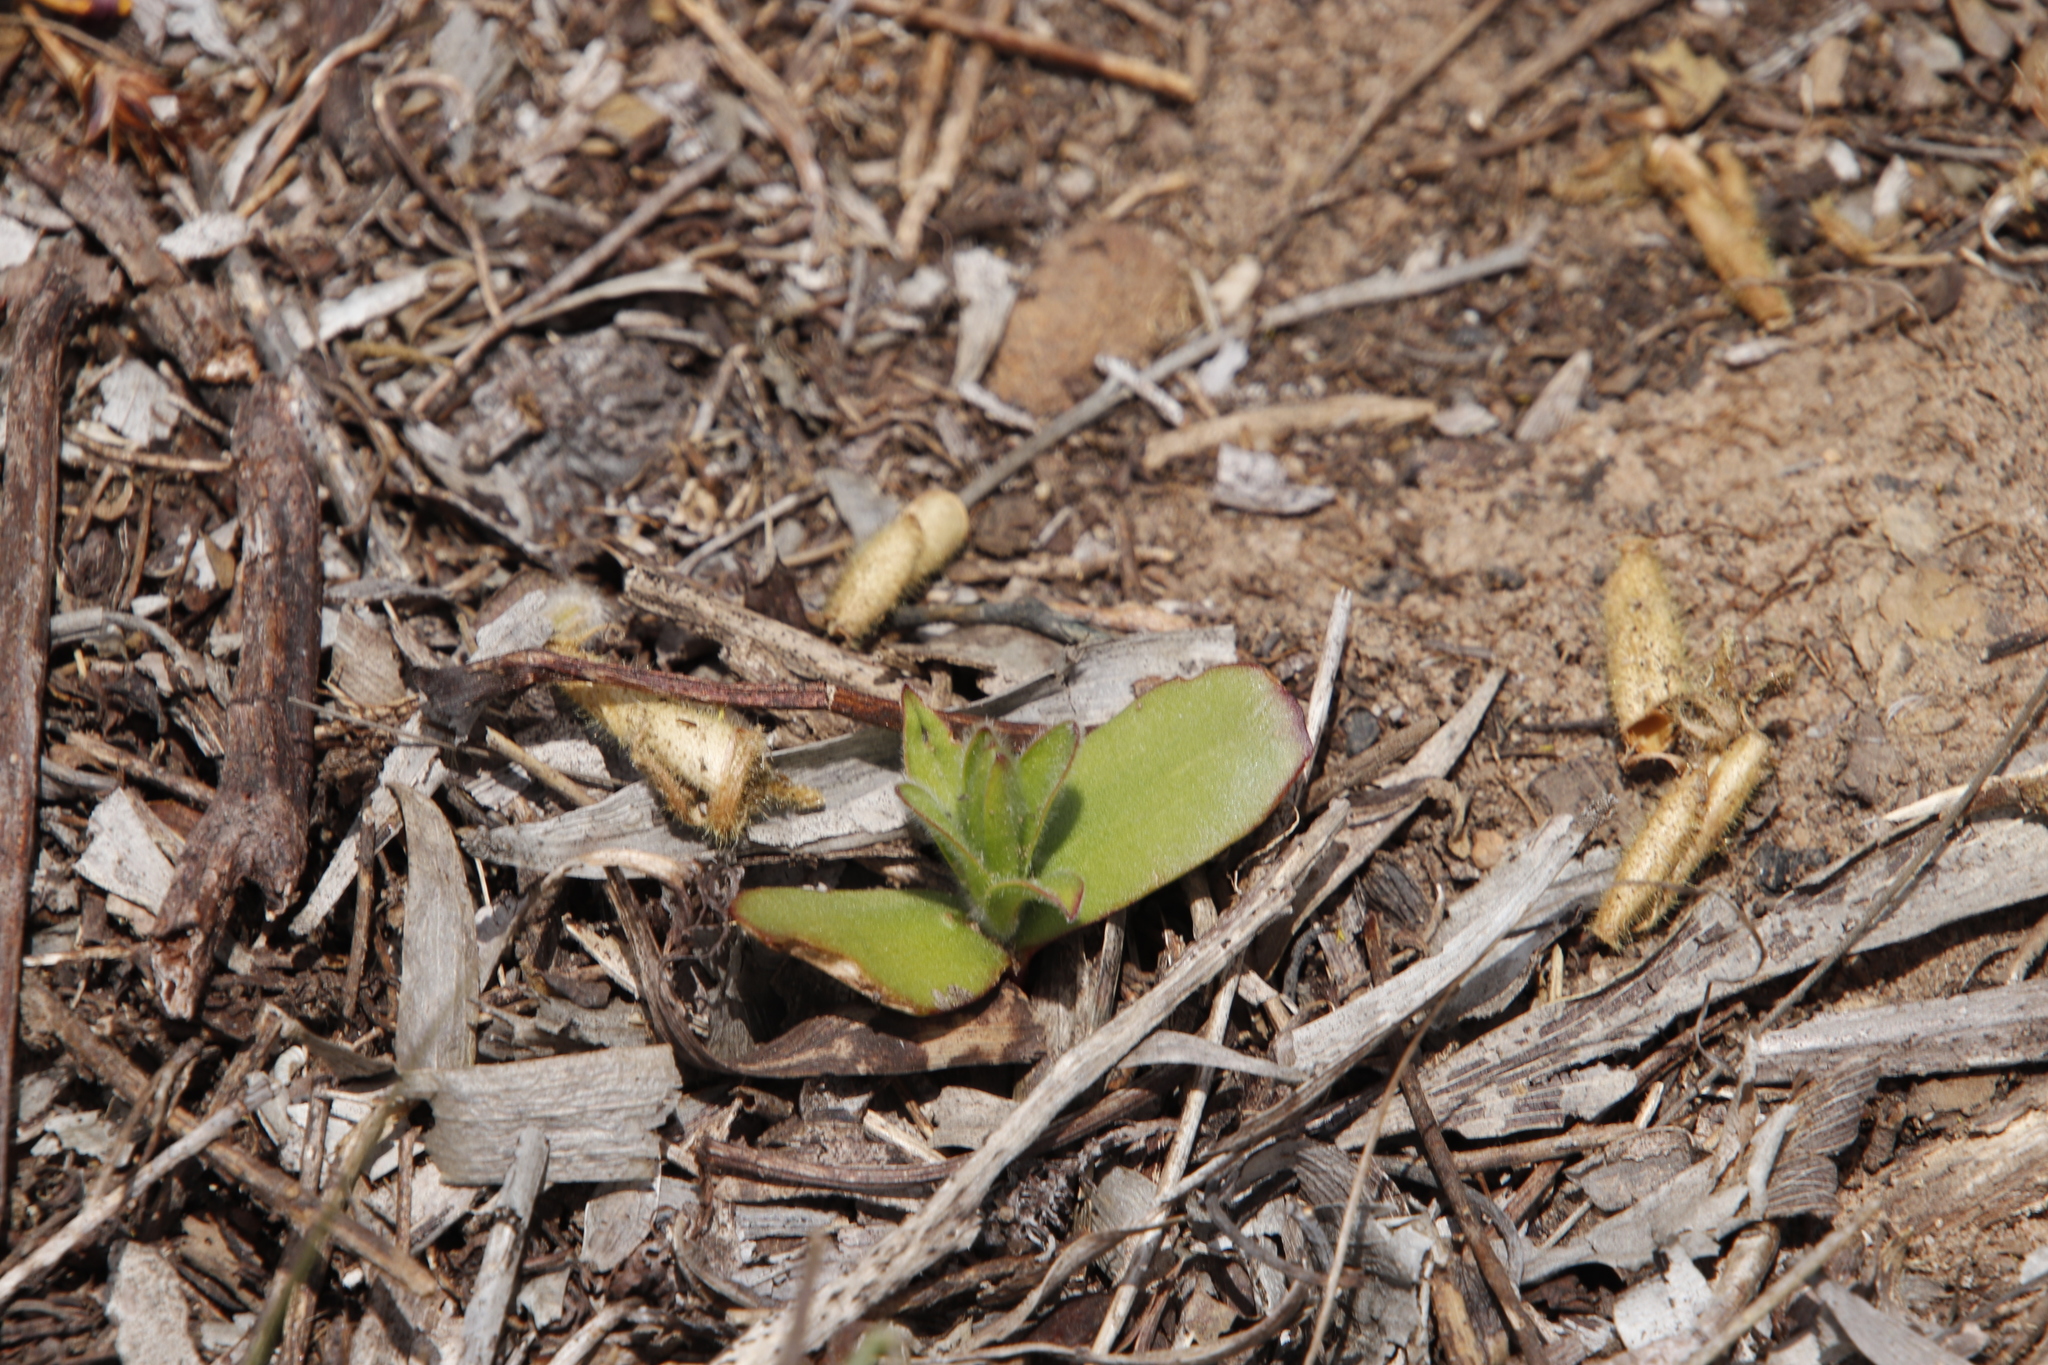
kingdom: Plantae
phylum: Tracheophyta
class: Magnoliopsida
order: Proteales
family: Proteaceae
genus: Leucadendron
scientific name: Leucadendron argenteum
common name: Cape silver tree
